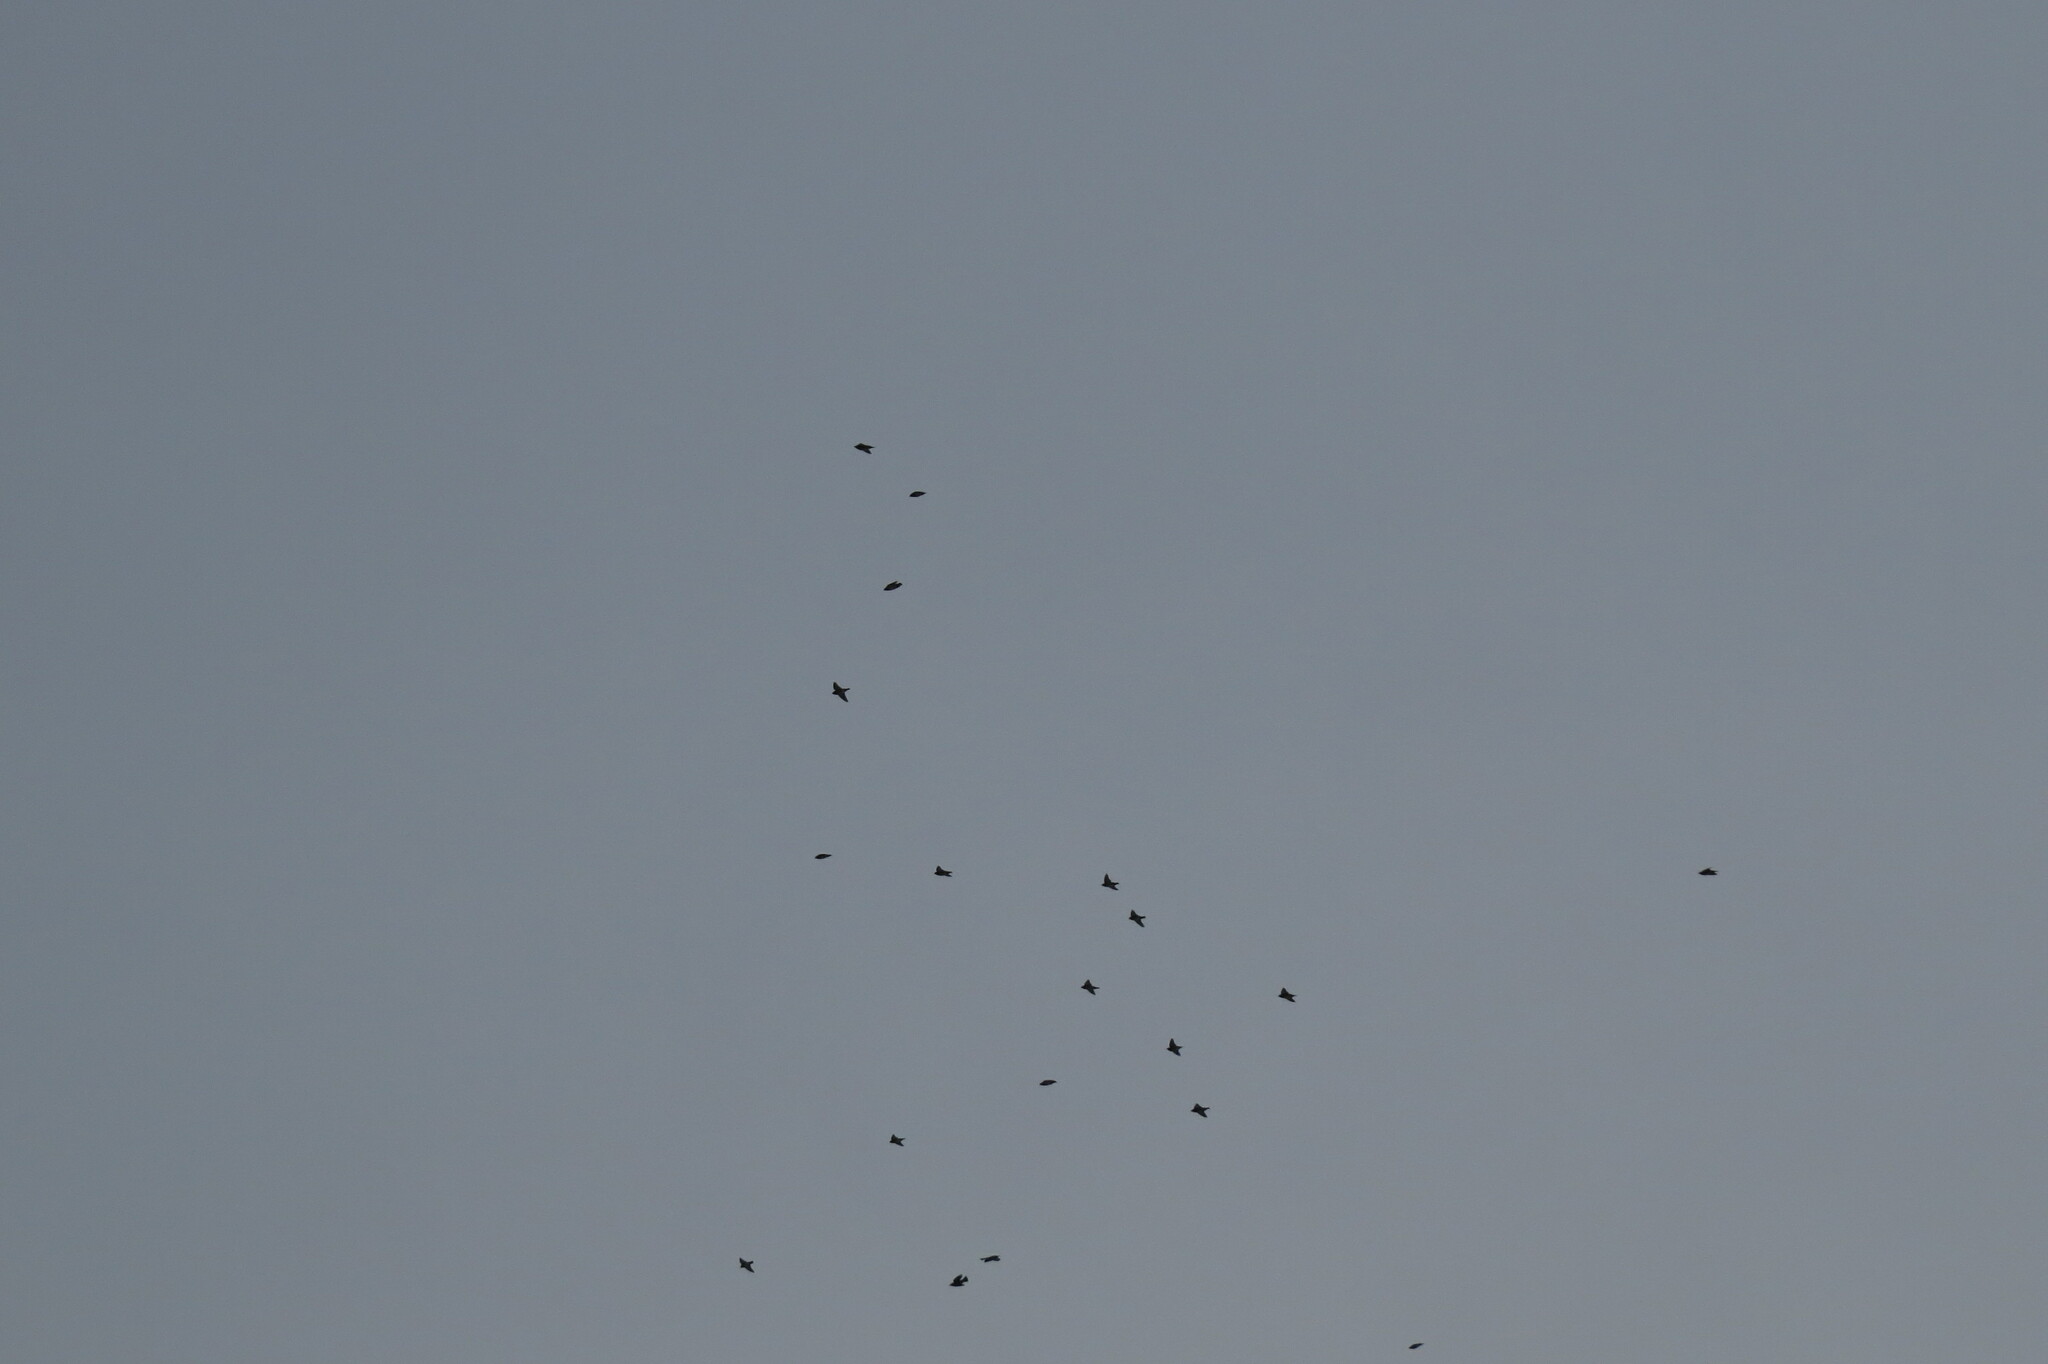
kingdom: Animalia
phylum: Chordata
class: Aves
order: Passeriformes
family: Bombycillidae
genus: Bombycilla
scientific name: Bombycilla garrulus
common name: Bohemian waxwing
